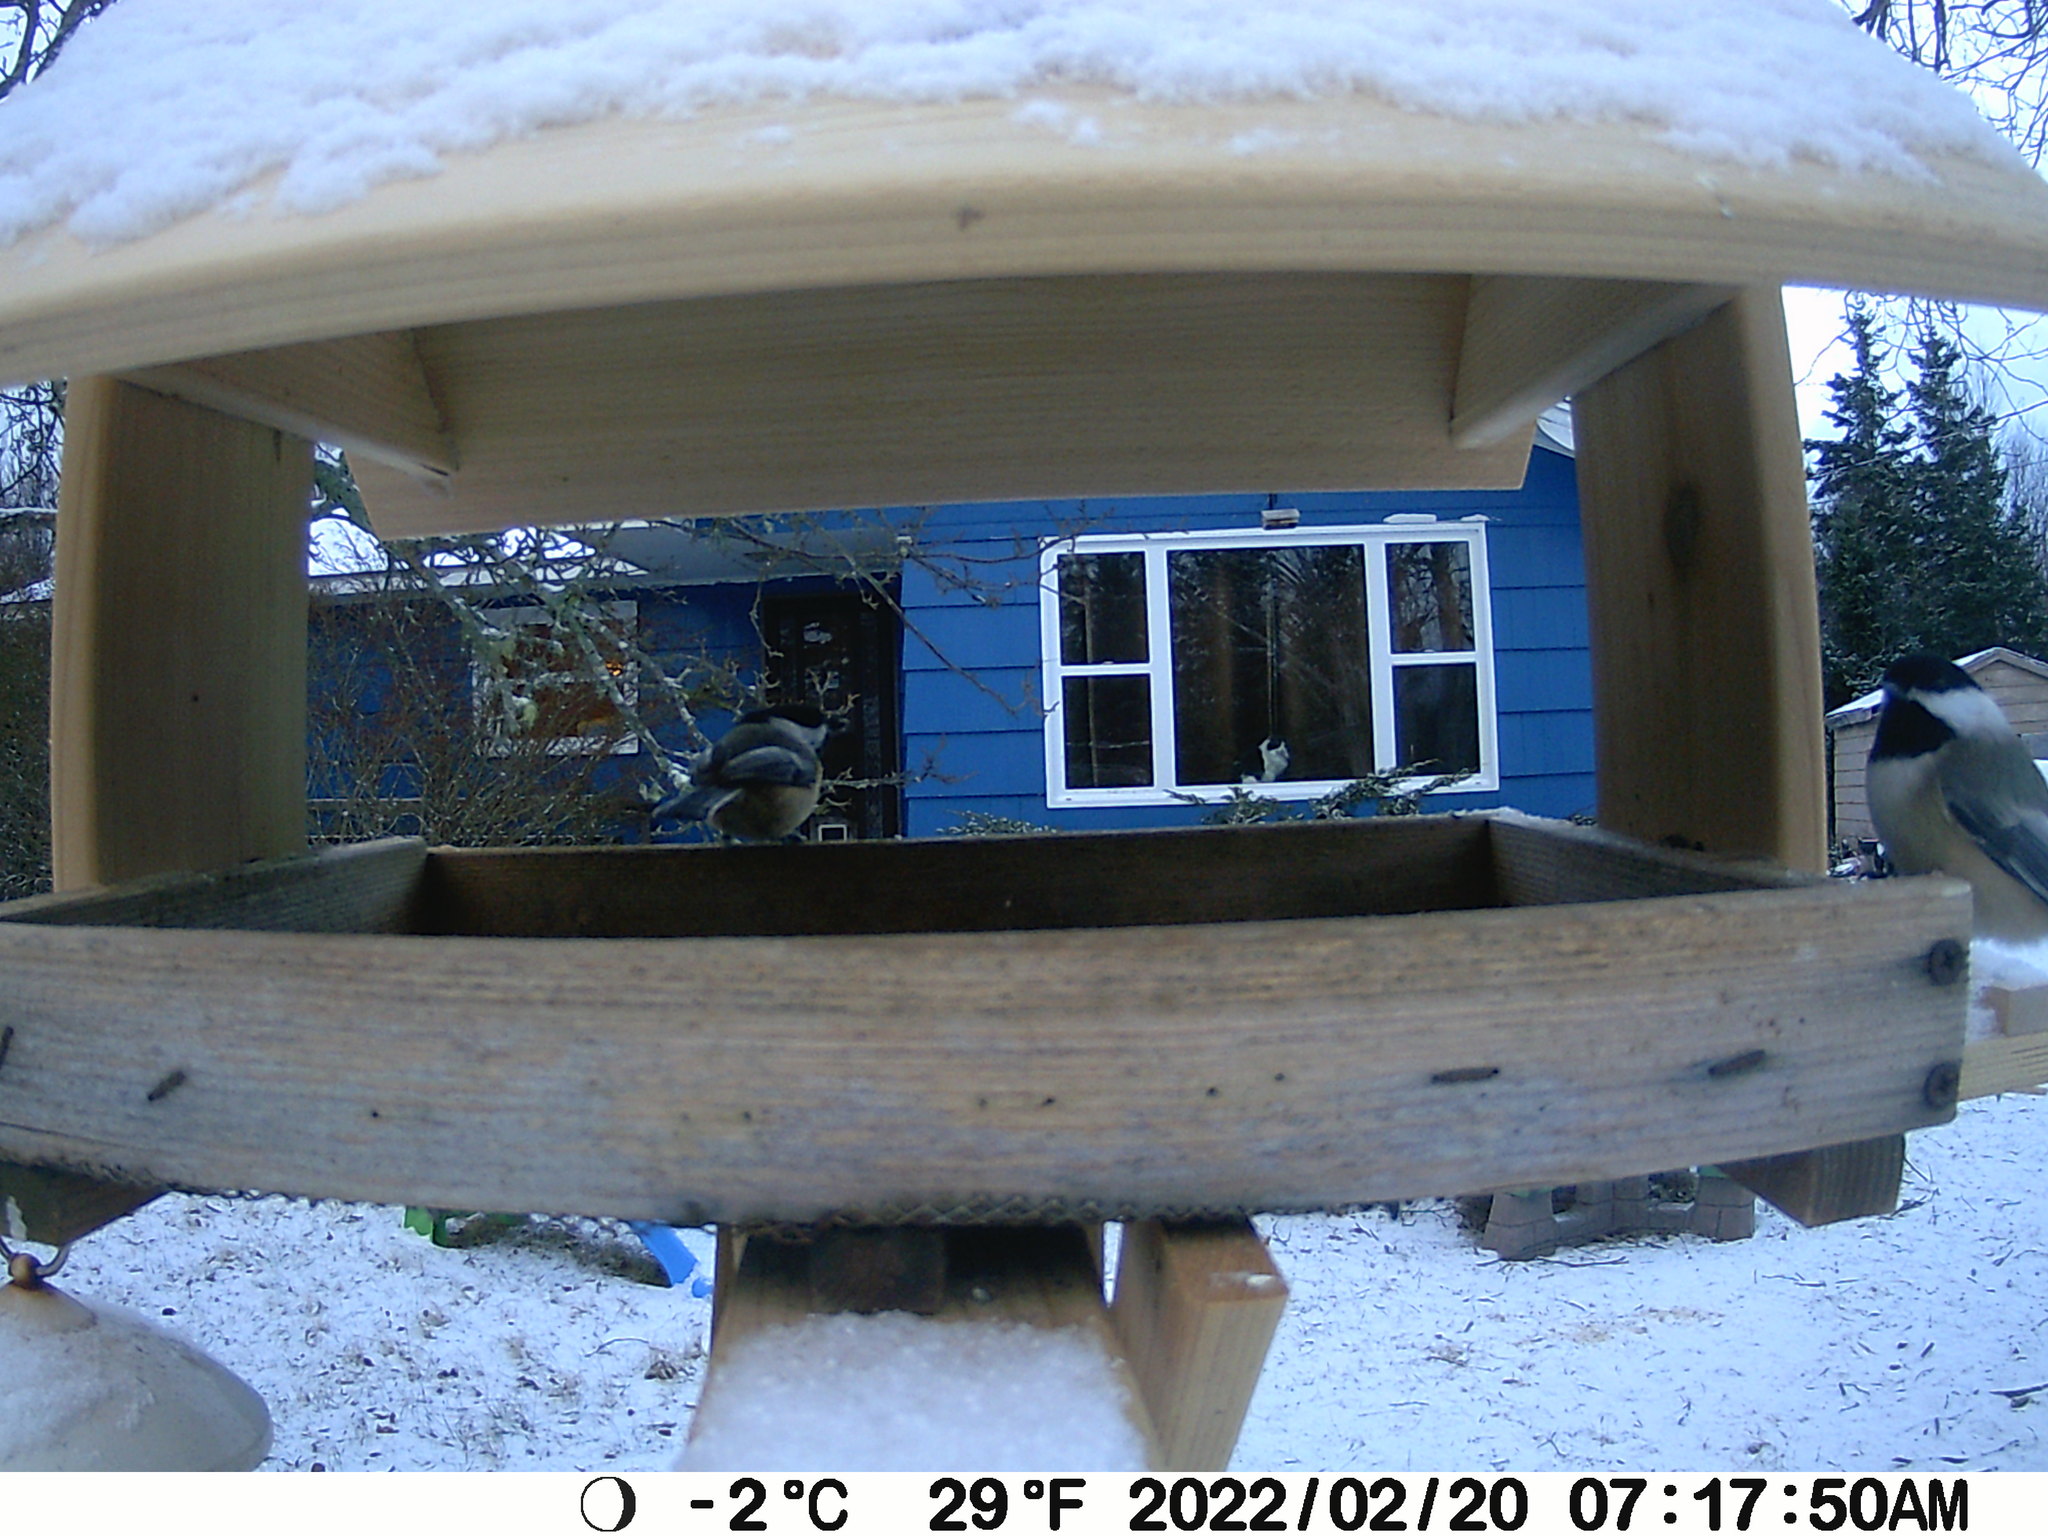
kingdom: Animalia
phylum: Chordata
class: Aves
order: Passeriformes
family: Paridae
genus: Poecile
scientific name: Poecile atricapillus
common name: Black-capped chickadee
